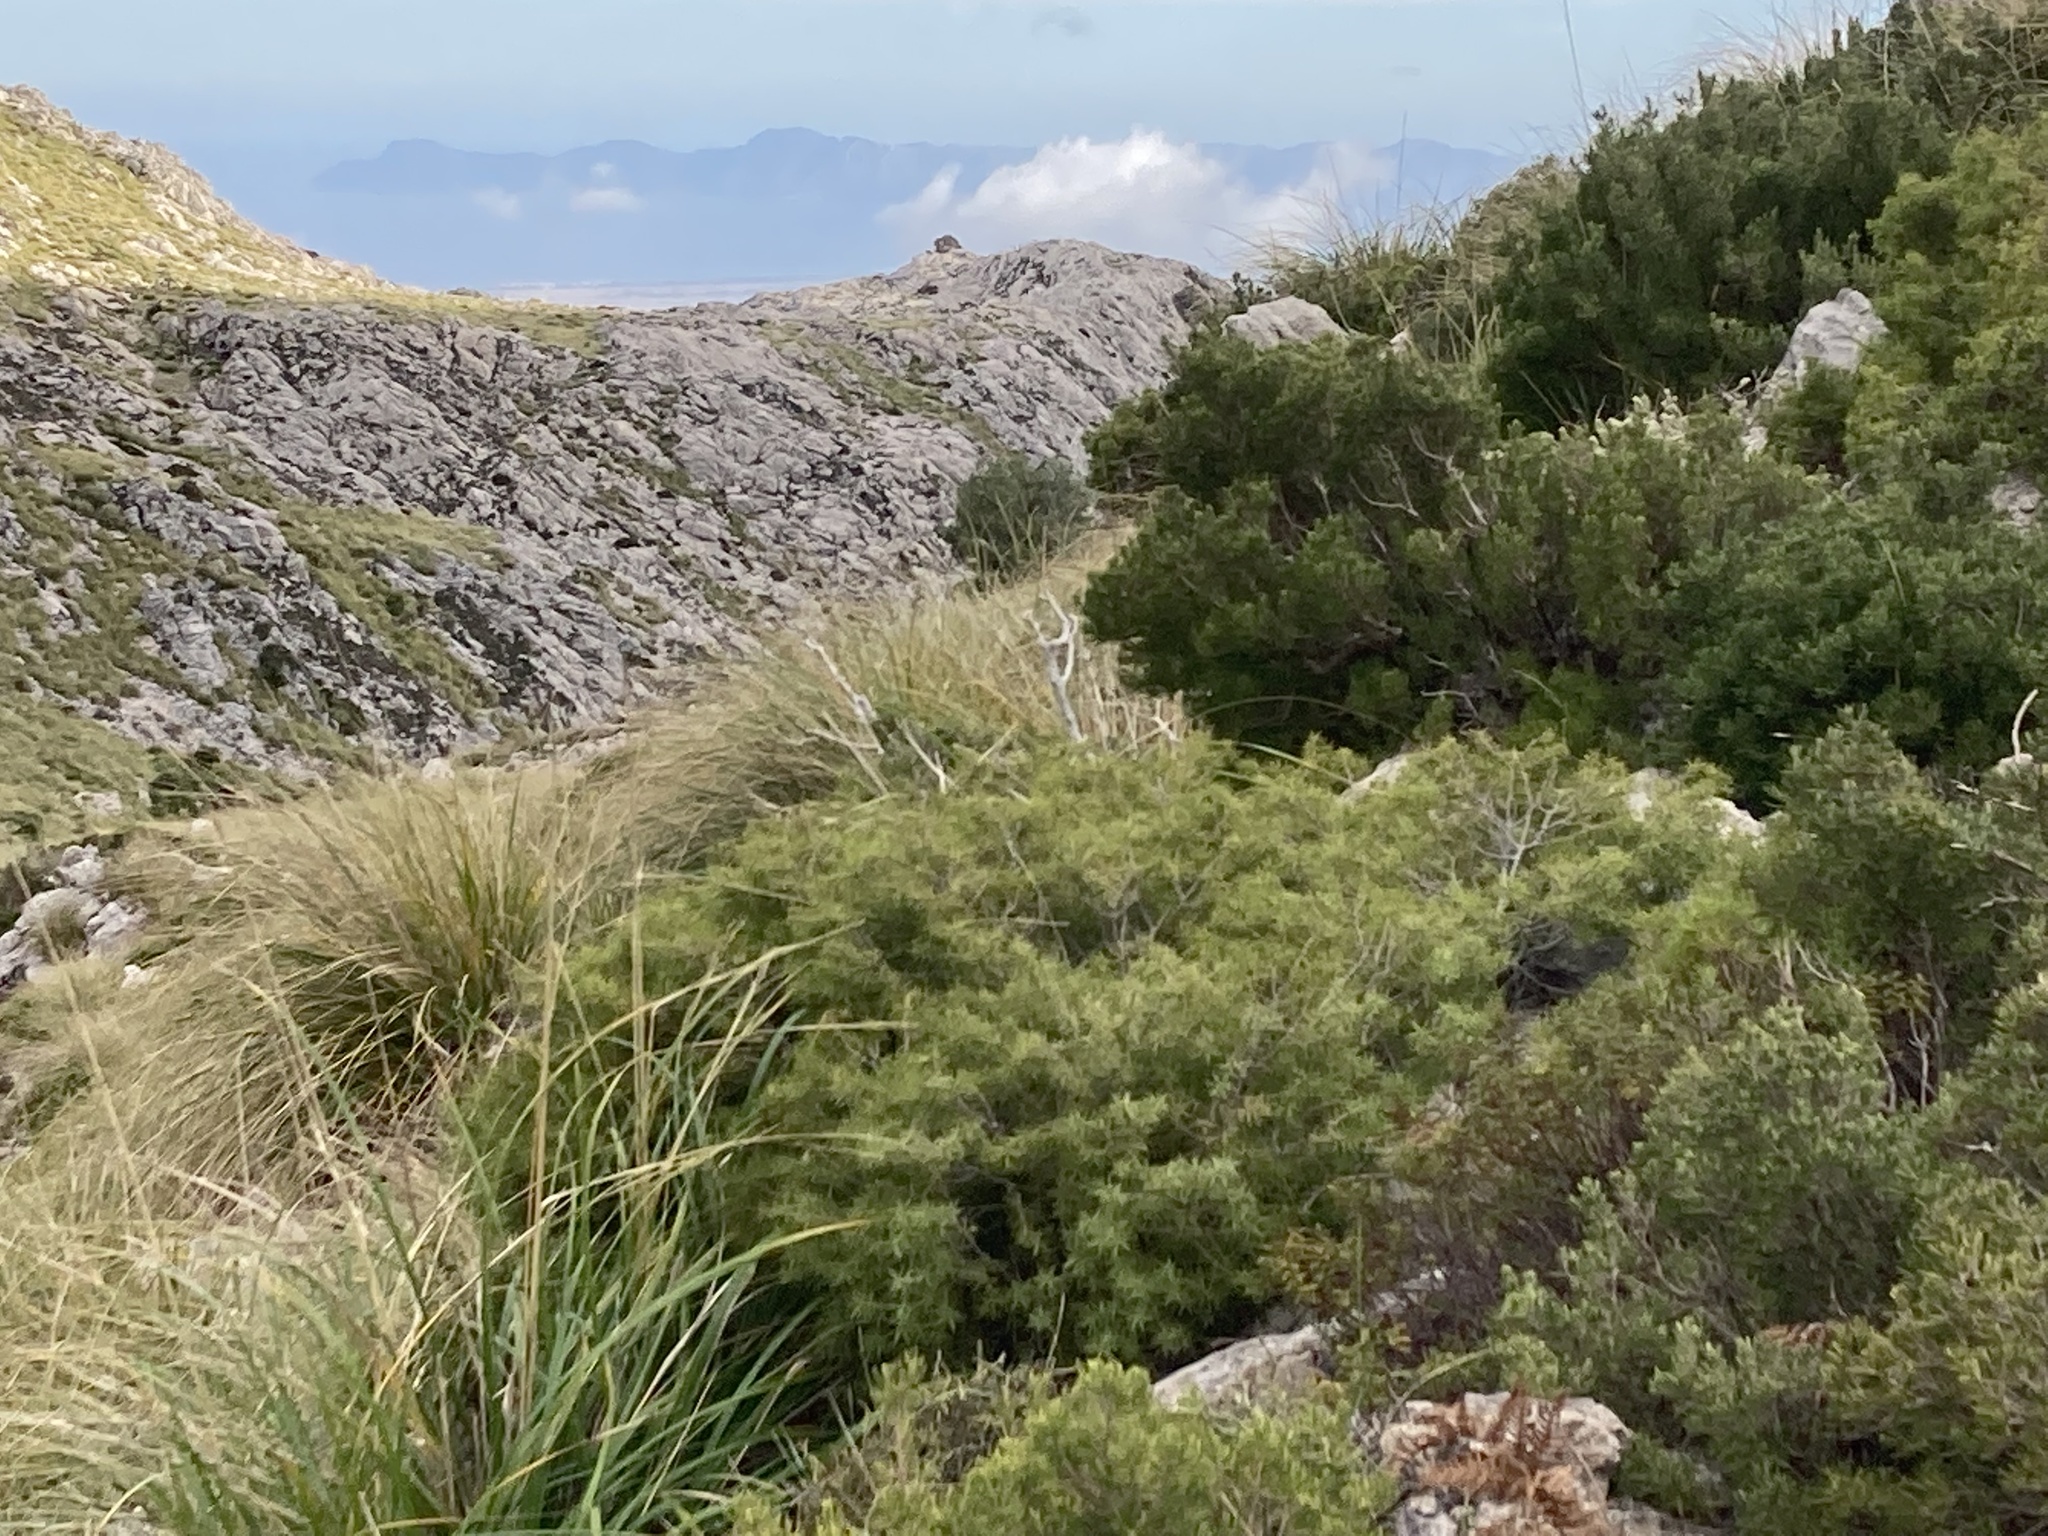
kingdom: Plantae
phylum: Tracheophyta
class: Pinopsida
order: Pinales
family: Cupressaceae
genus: Juniperus
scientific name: Juniperus oxycedrus
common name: Prickly juniper
